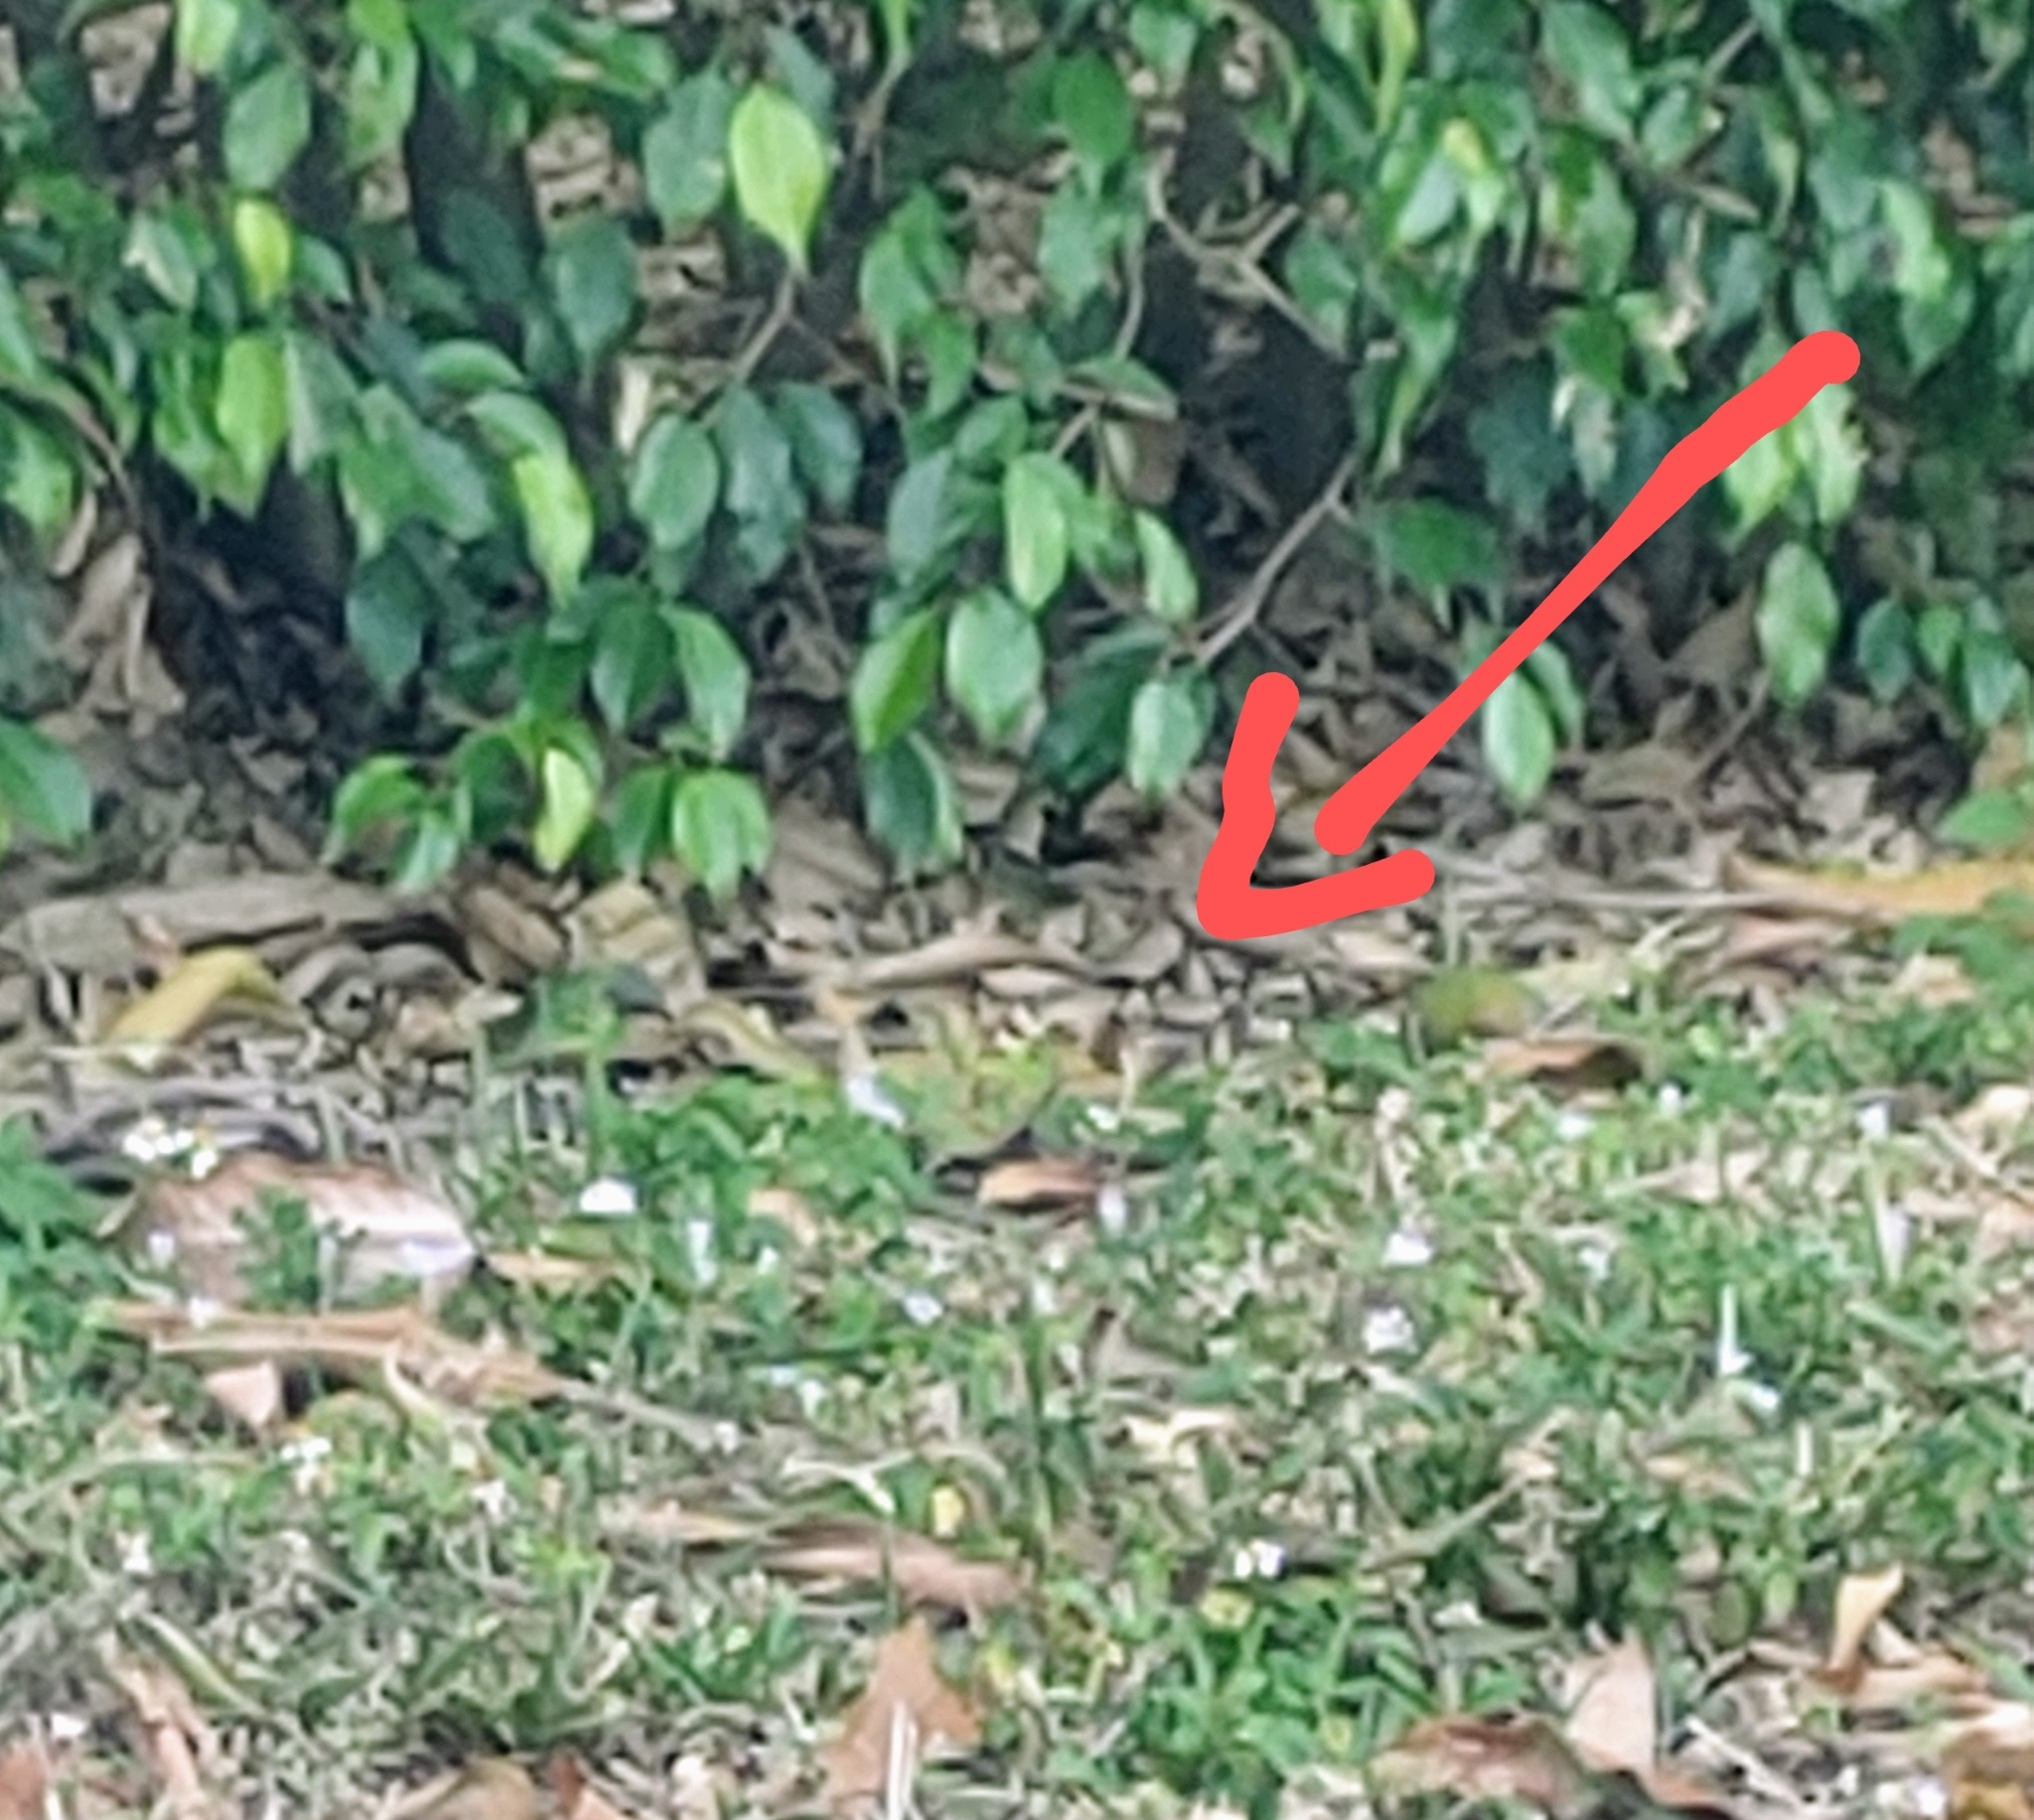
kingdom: Animalia
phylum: Chordata
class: Aves
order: Passeriformes
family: Cardinalidae
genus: Passerina
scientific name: Passerina ciris
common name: Painted bunting
